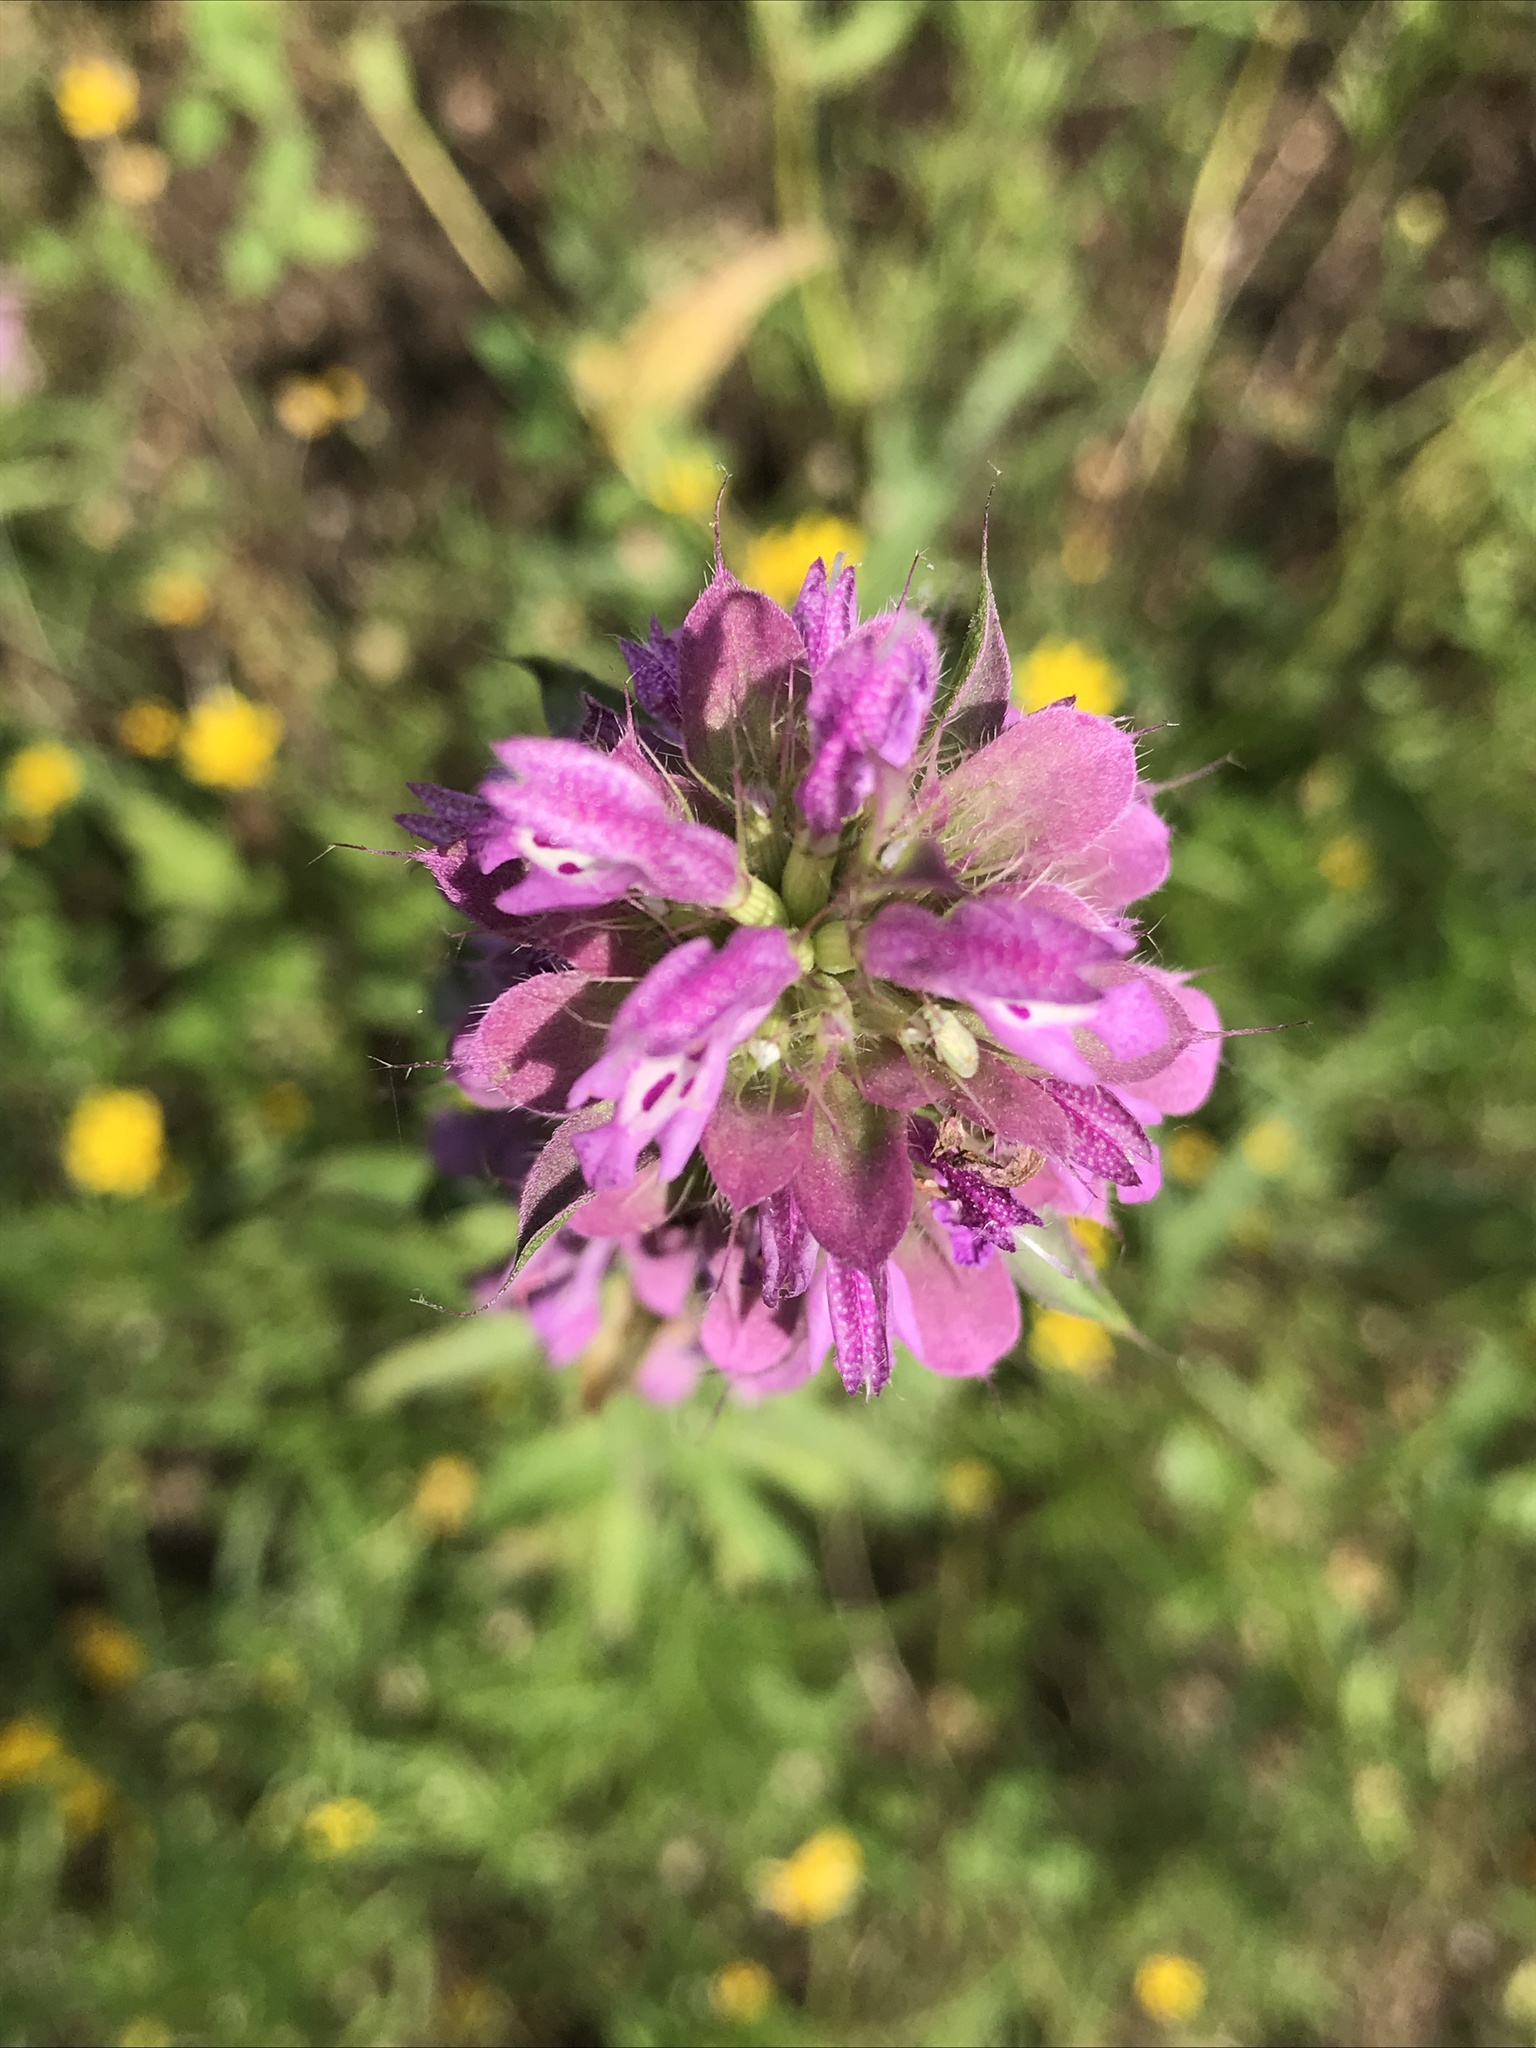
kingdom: Plantae
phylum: Tracheophyta
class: Magnoliopsida
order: Lamiales
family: Lamiaceae
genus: Monarda
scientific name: Monarda citriodora
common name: Lemon beebalm
